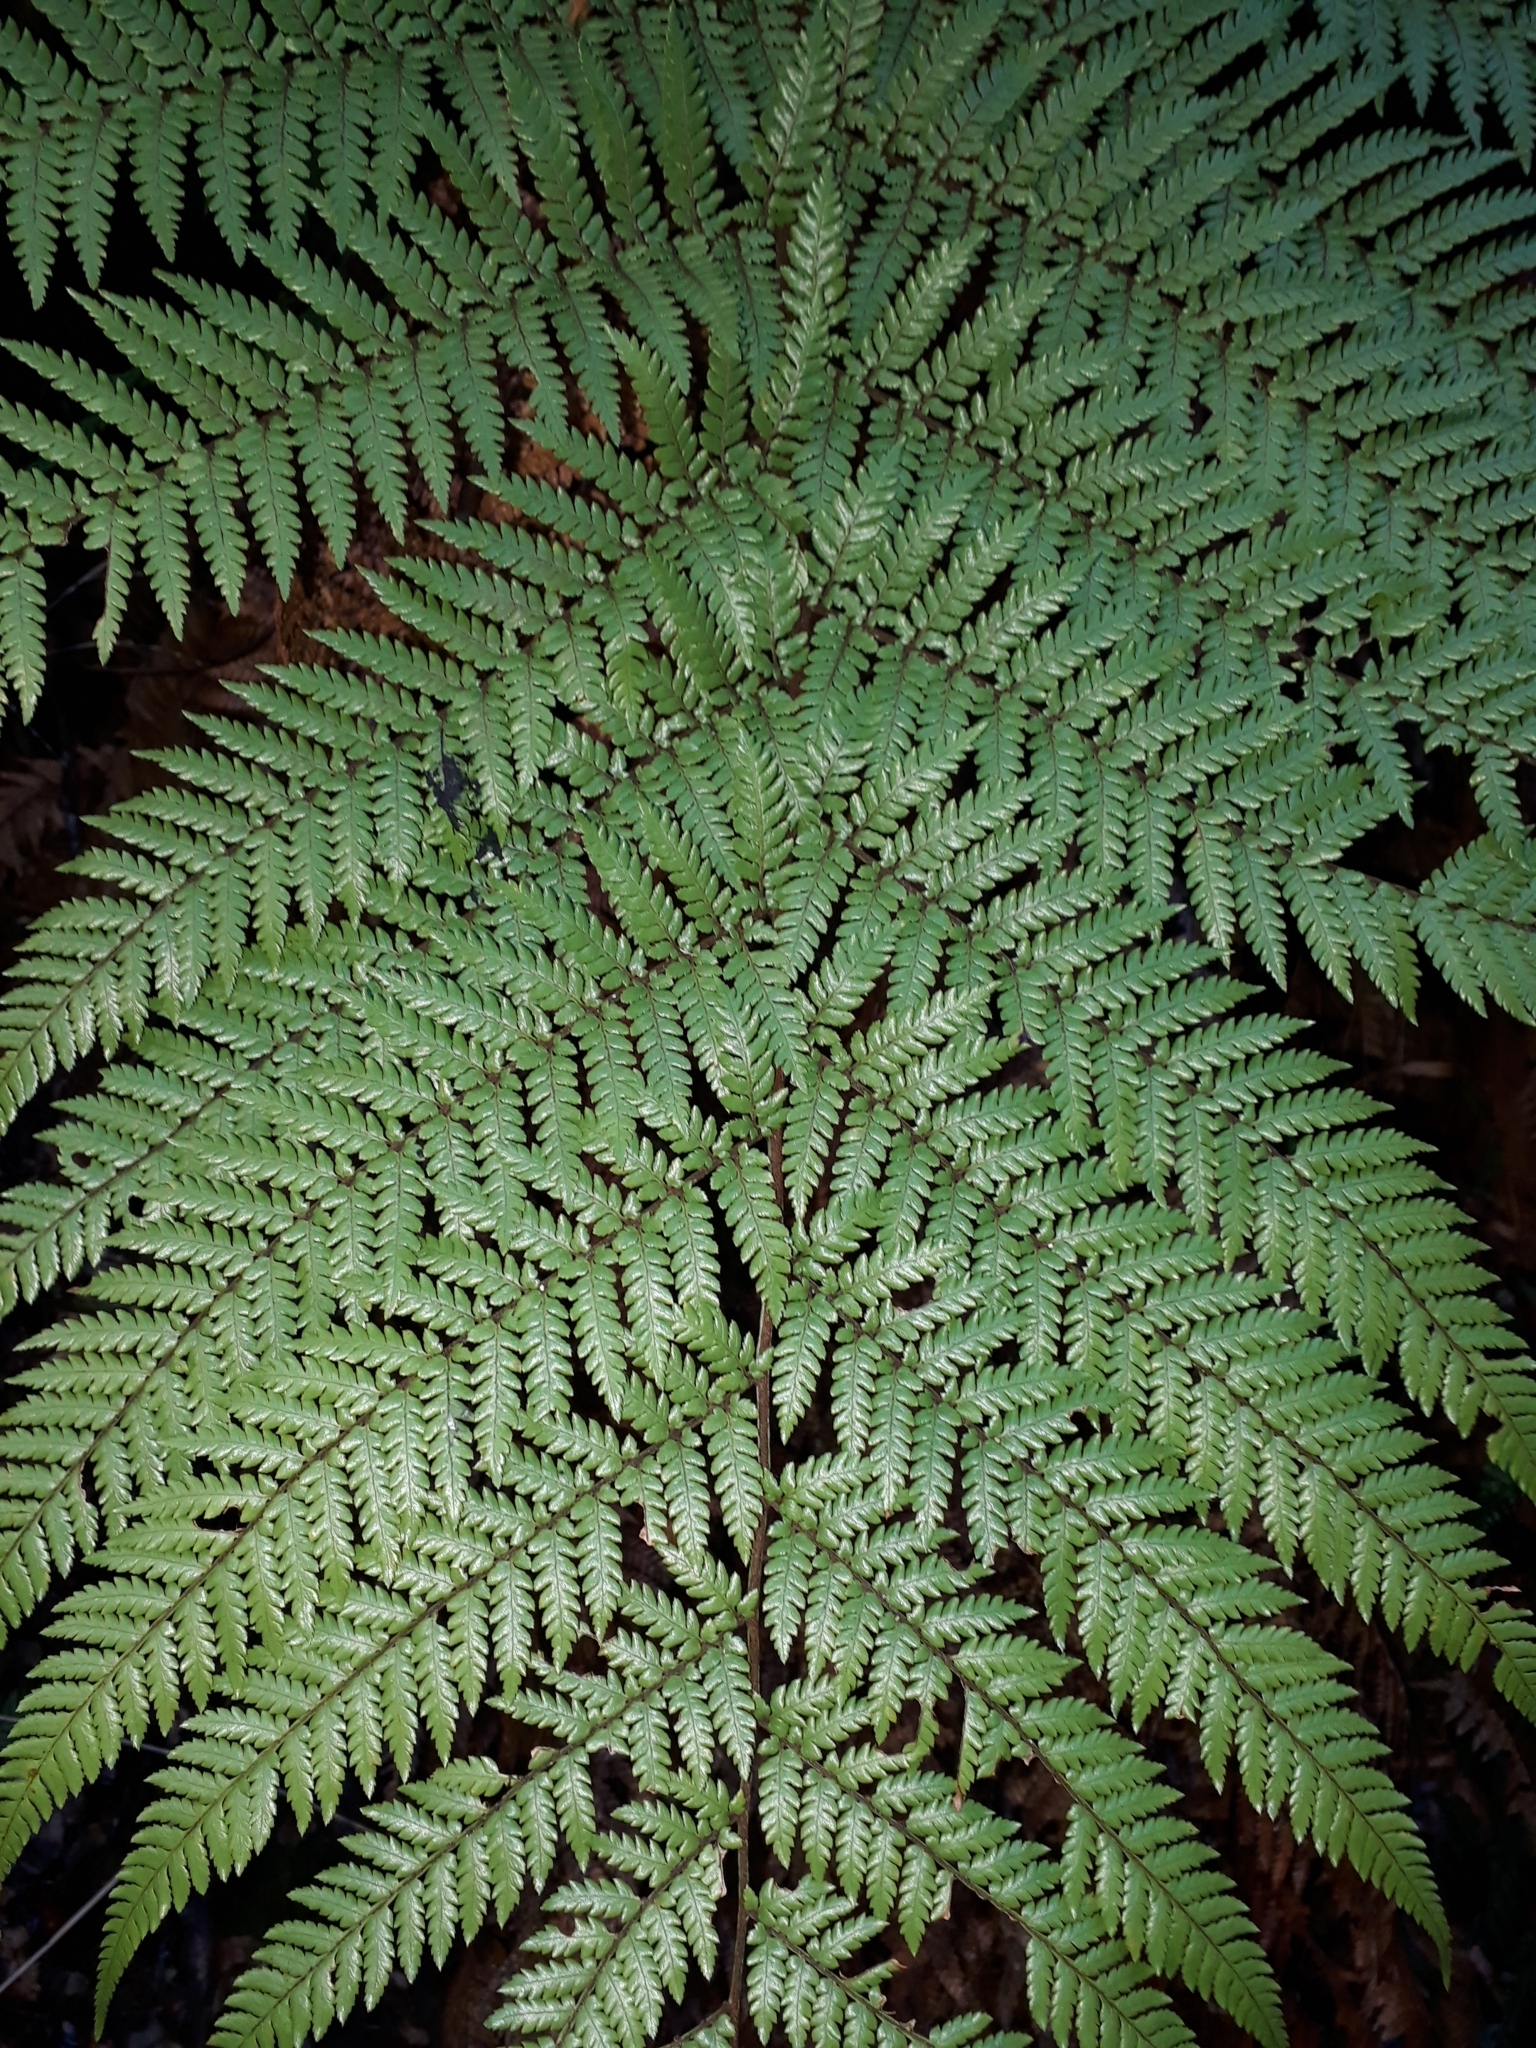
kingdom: Plantae
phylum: Tracheophyta
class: Polypodiopsida
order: Cyatheales
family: Dicksoniaceae
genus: Dicksonia
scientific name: Dicksonia
